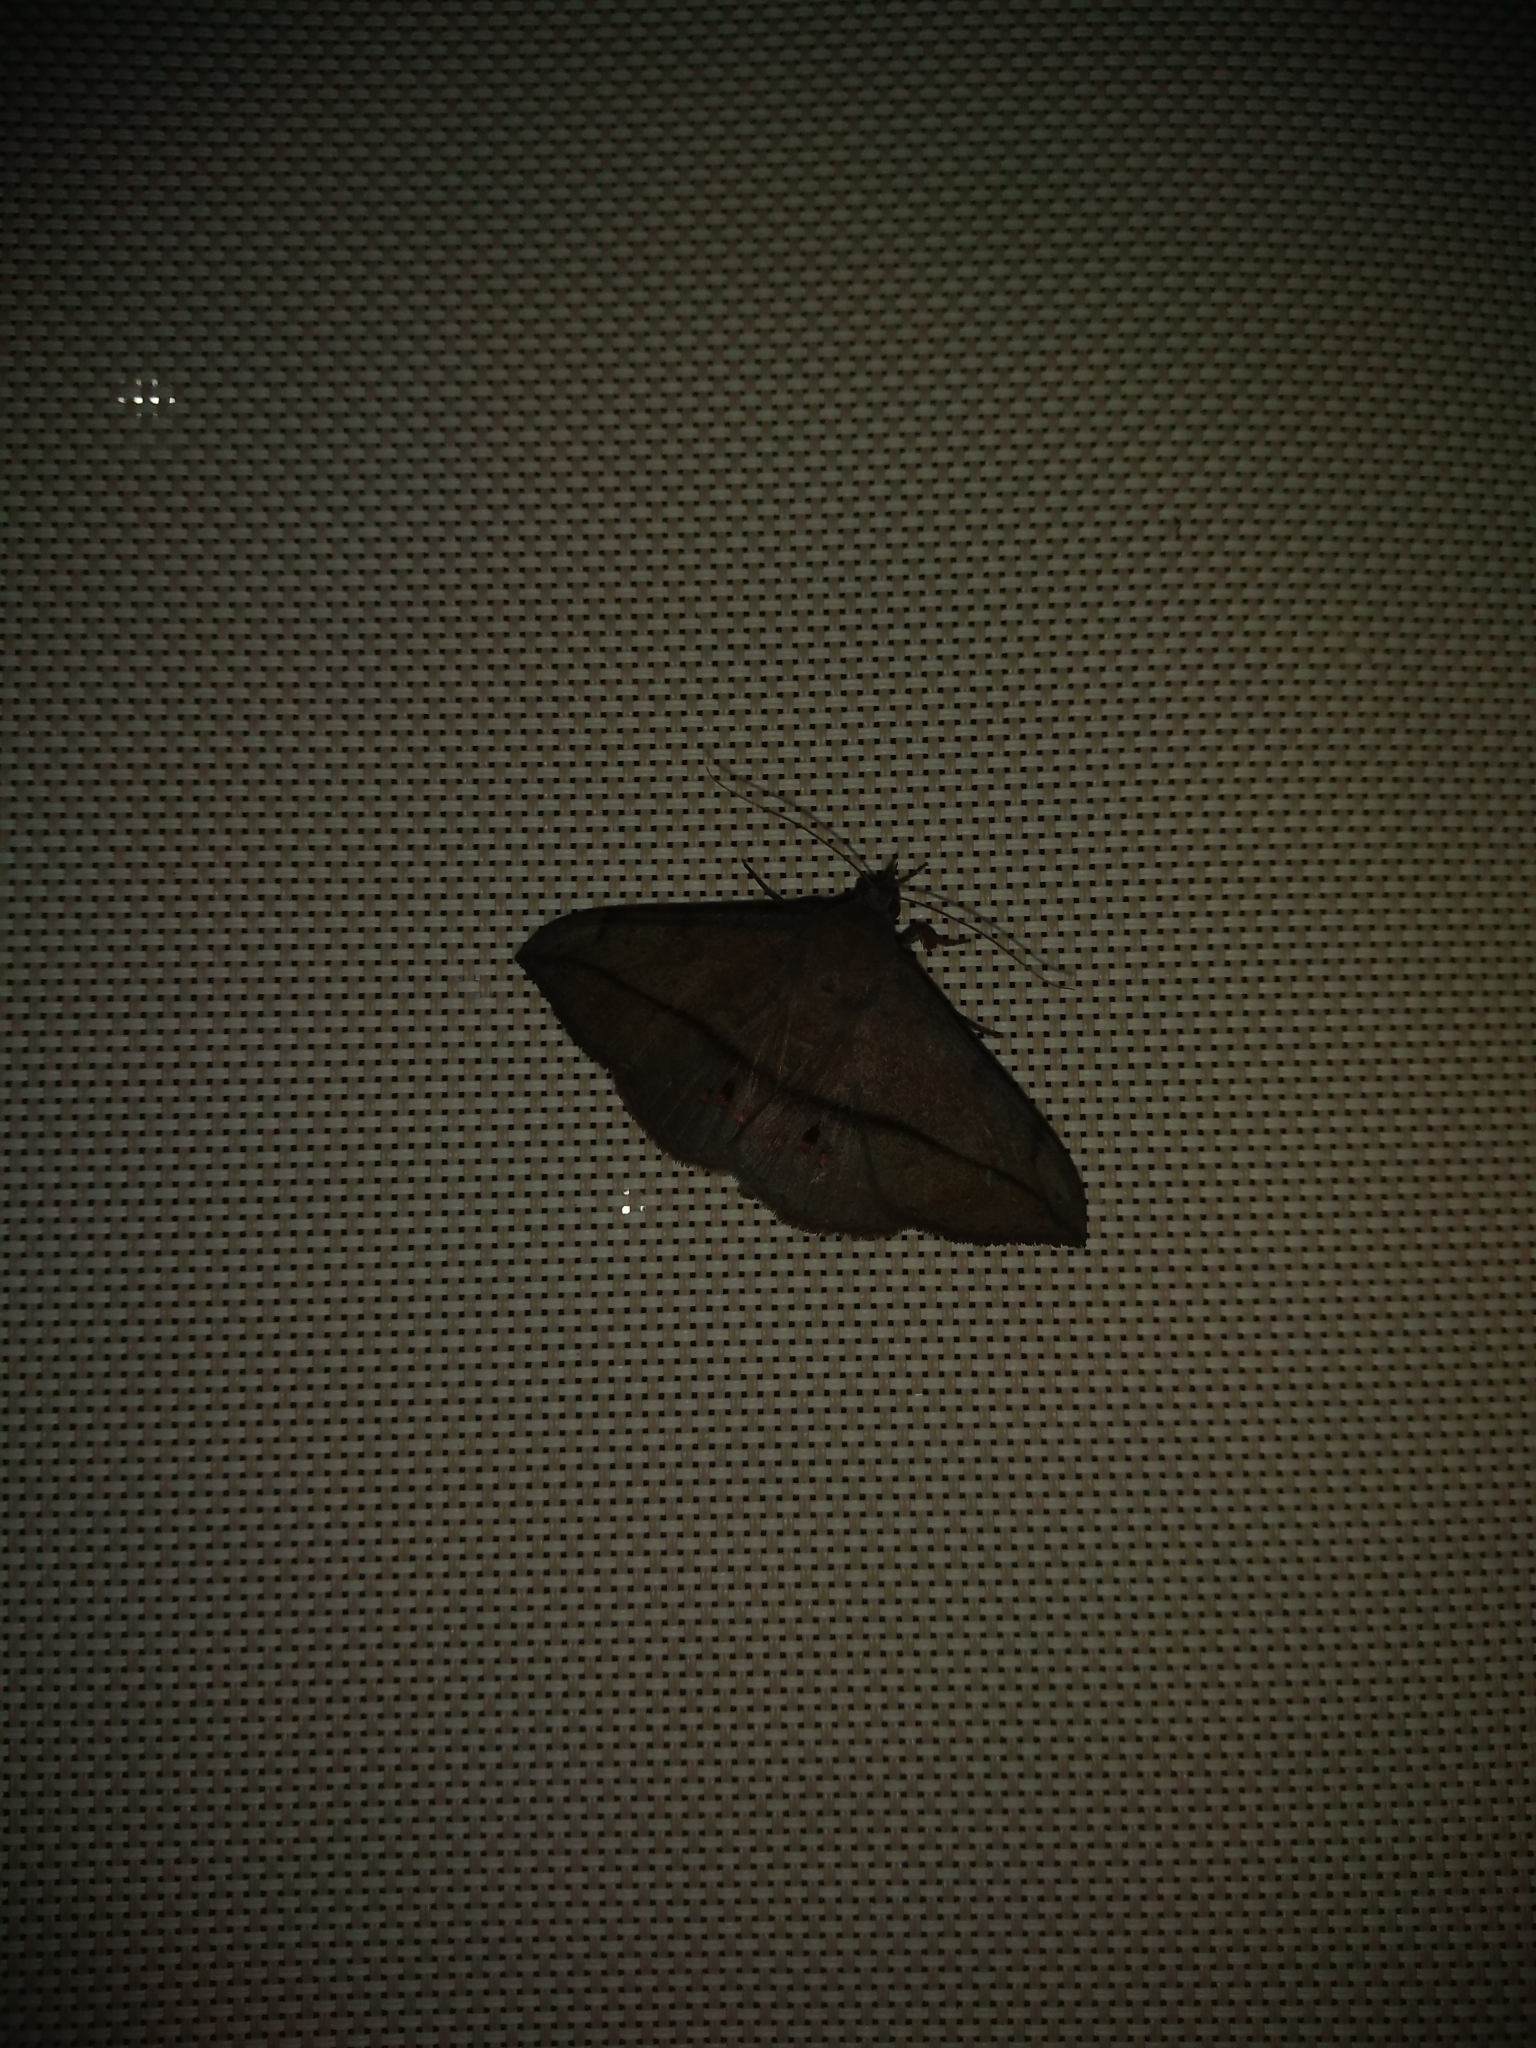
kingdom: Animalia
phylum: Arthropoda
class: Insecta
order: Lepidoptera
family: Erebidae
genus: Anticarsia
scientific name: Anticarsia gemmatalis
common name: Cutworm moth
